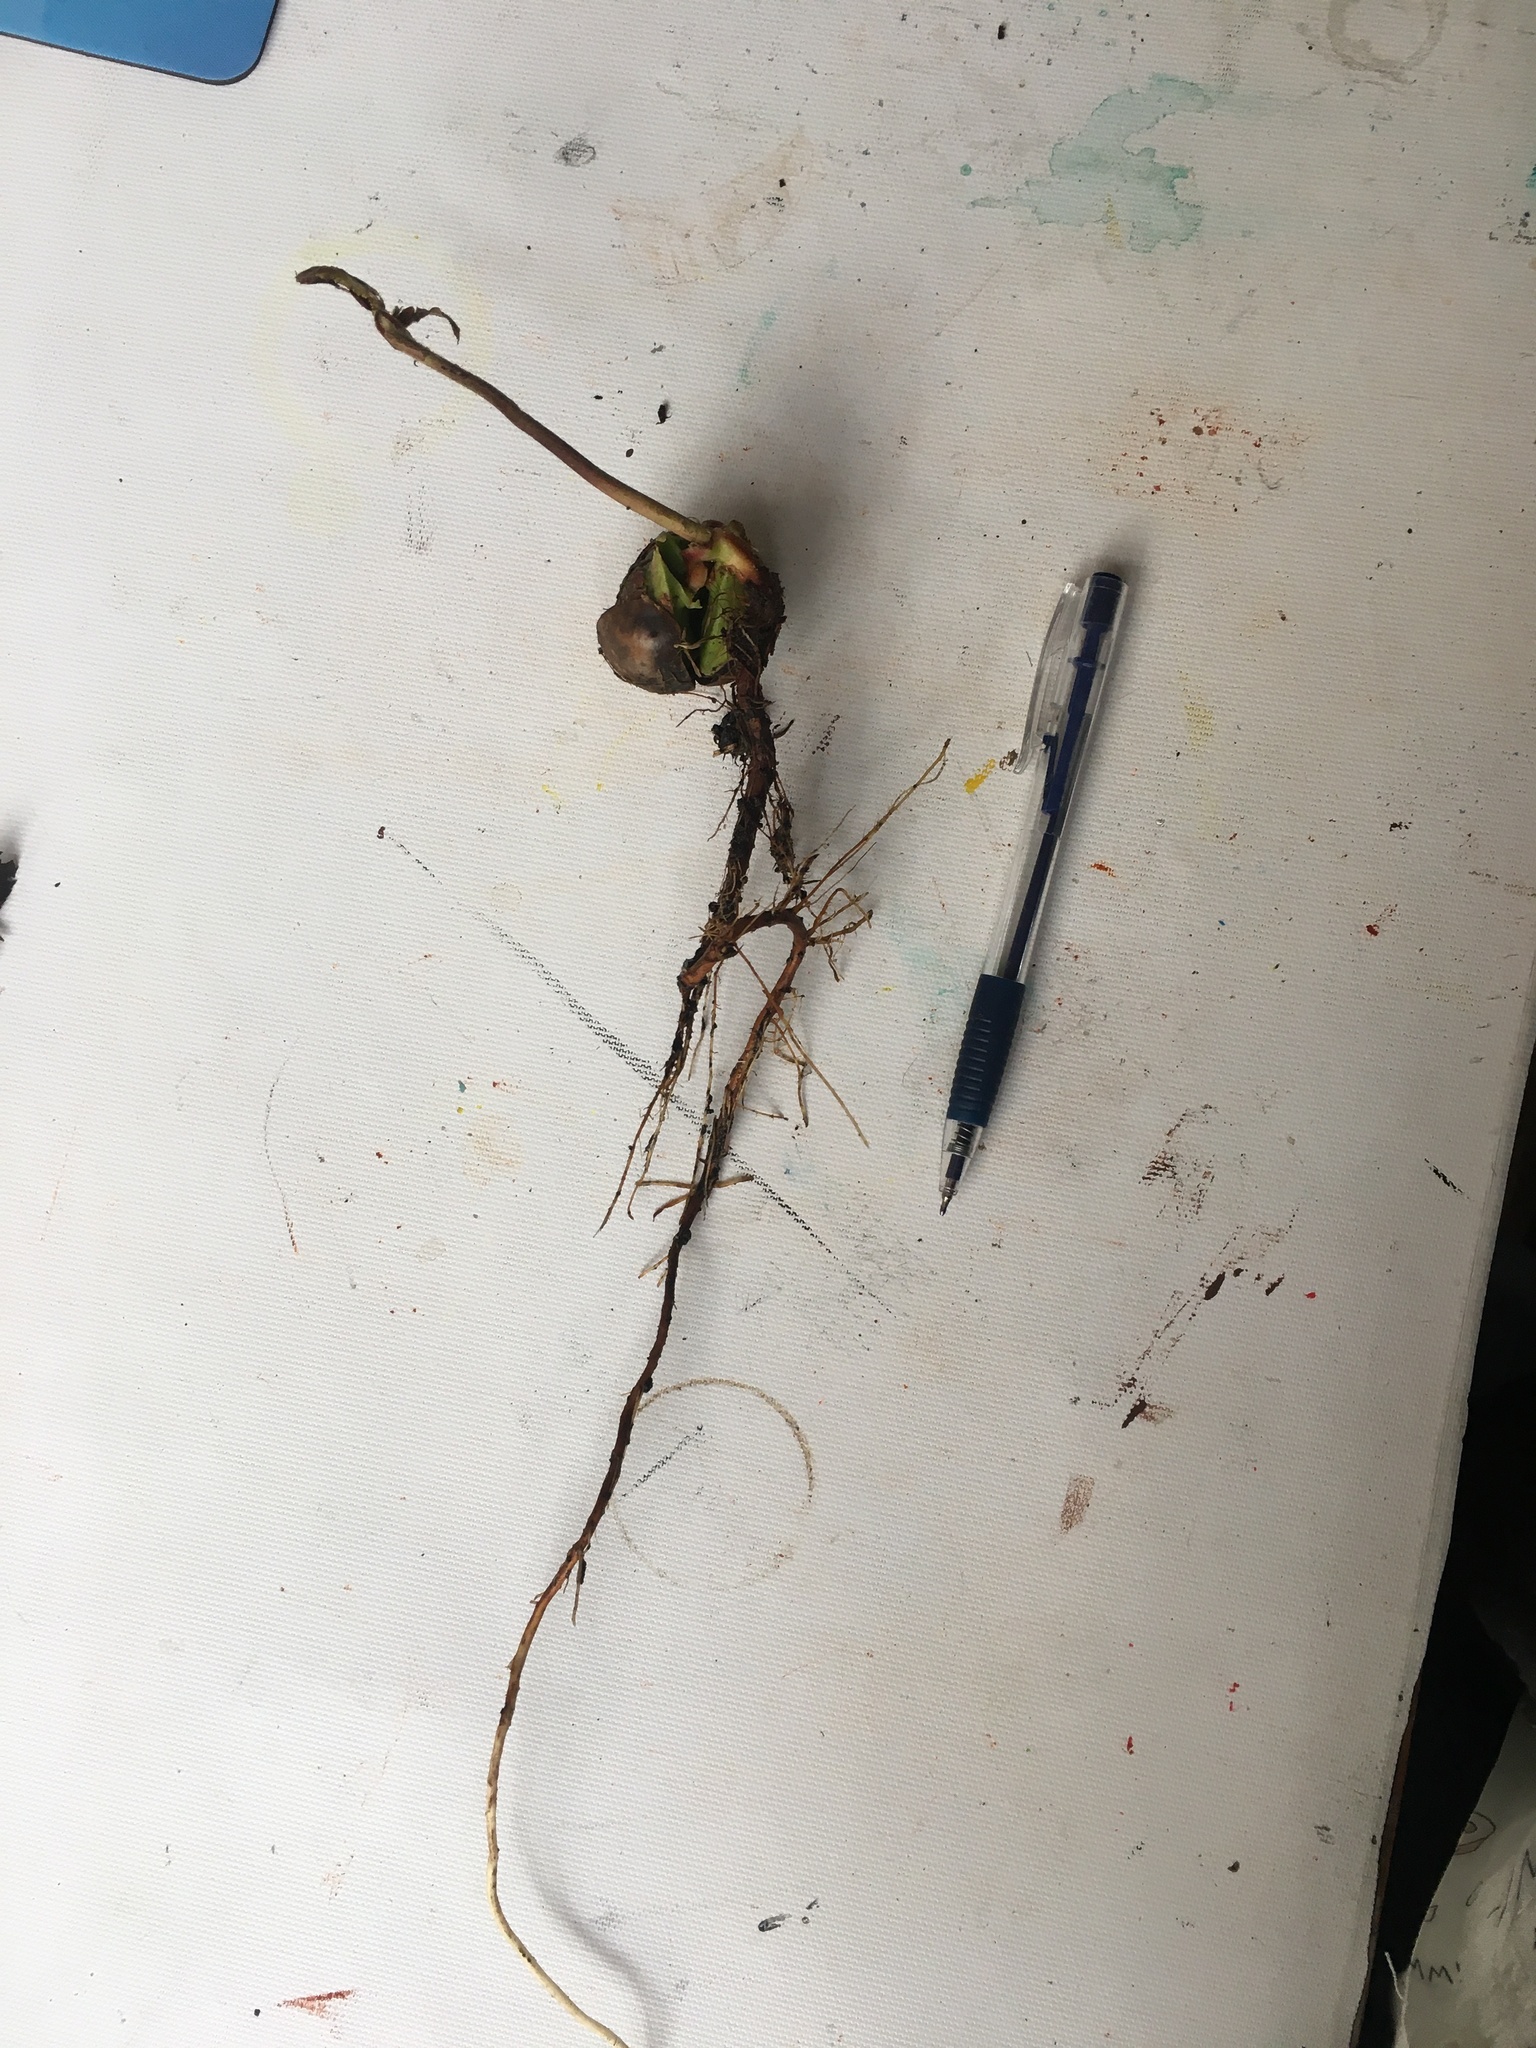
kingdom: Plantae
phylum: Tracheophyta
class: Magnoliopsida
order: Fagales
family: Fagaceae
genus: Quercus
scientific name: Quercus humboldtii
